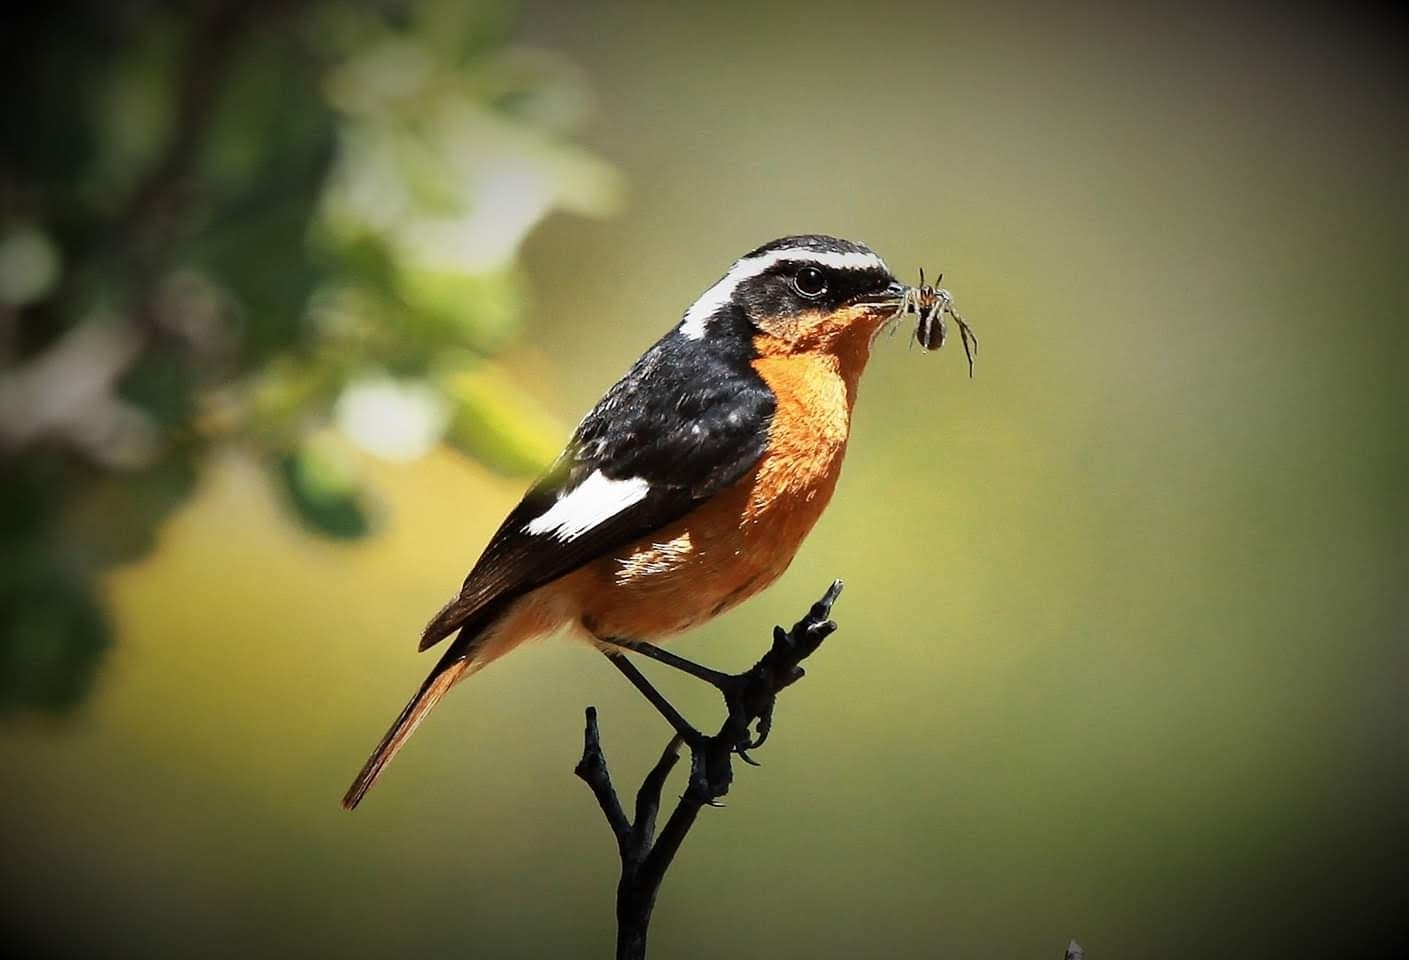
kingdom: Animalia
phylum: Chordata
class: Aves
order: Passeriformes
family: Muscicapidae
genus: Phoenicurus
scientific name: Phoenicurus moussieri
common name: Moussier's redstart
